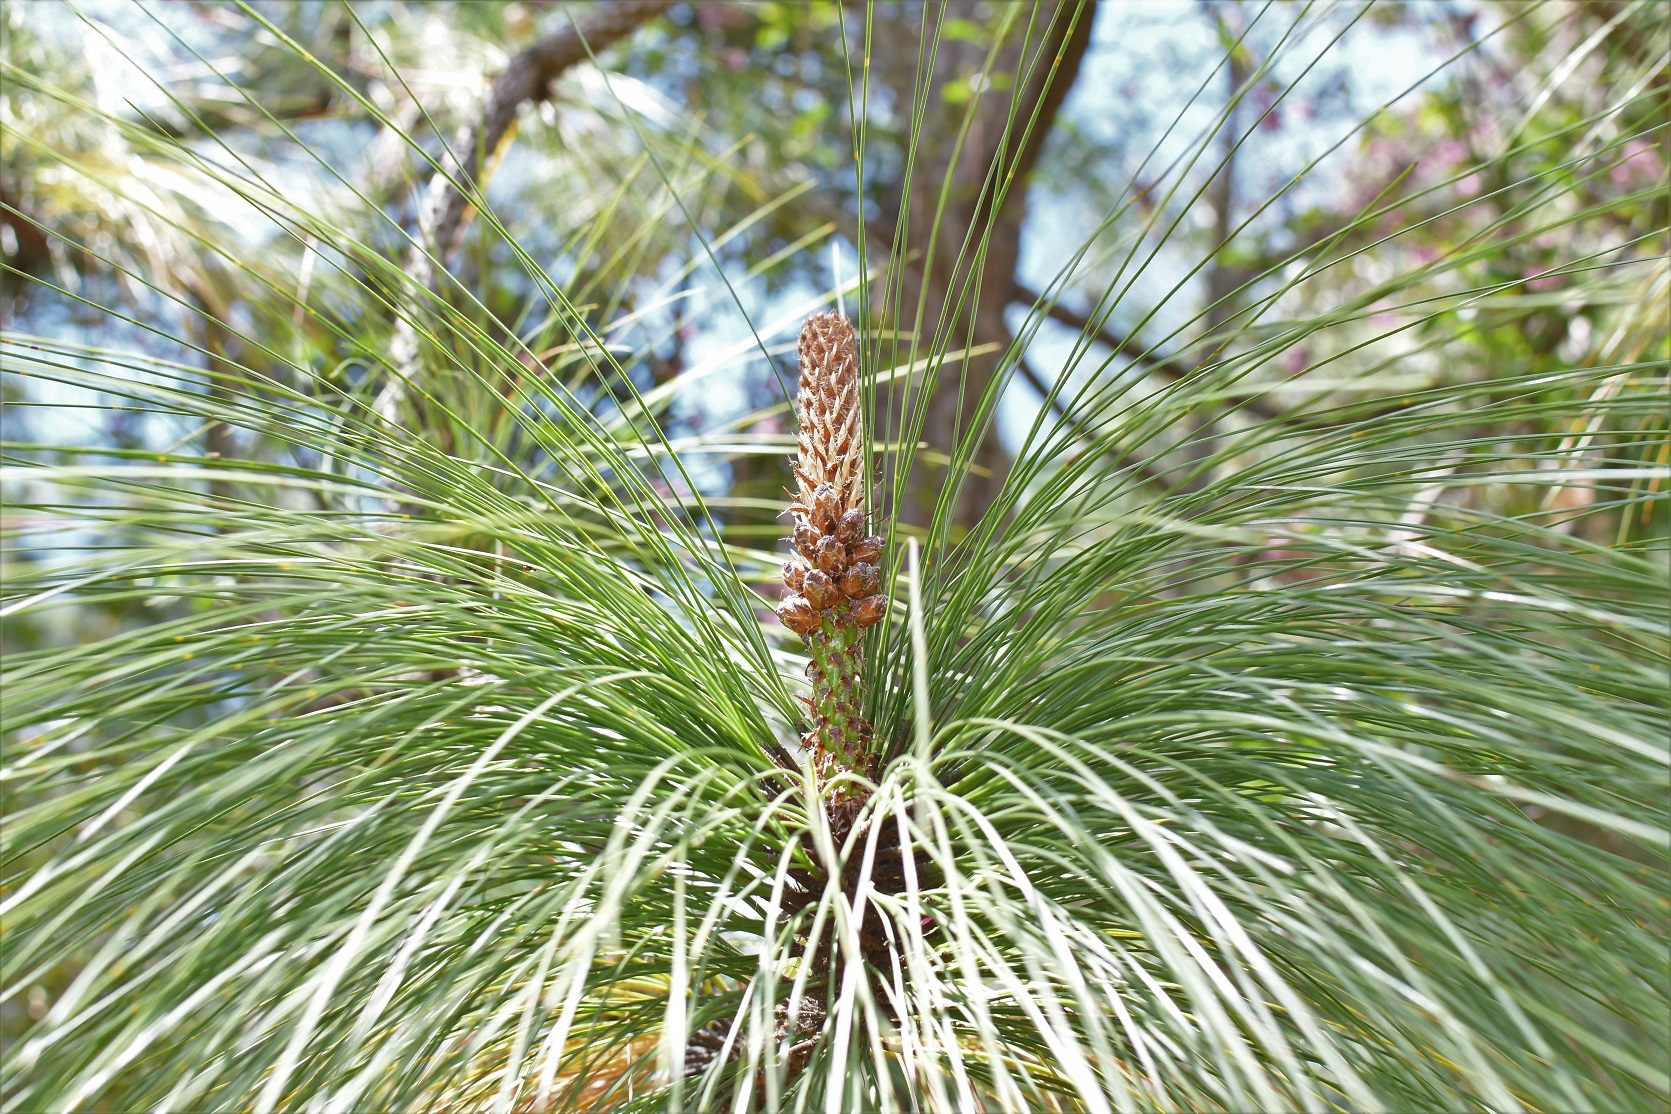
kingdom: Plantae
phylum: Tracheophyta
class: Pinopsida
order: Pinales
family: Pinaceae
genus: Pinus
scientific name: Pinus devoniana
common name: Michoacan pine
